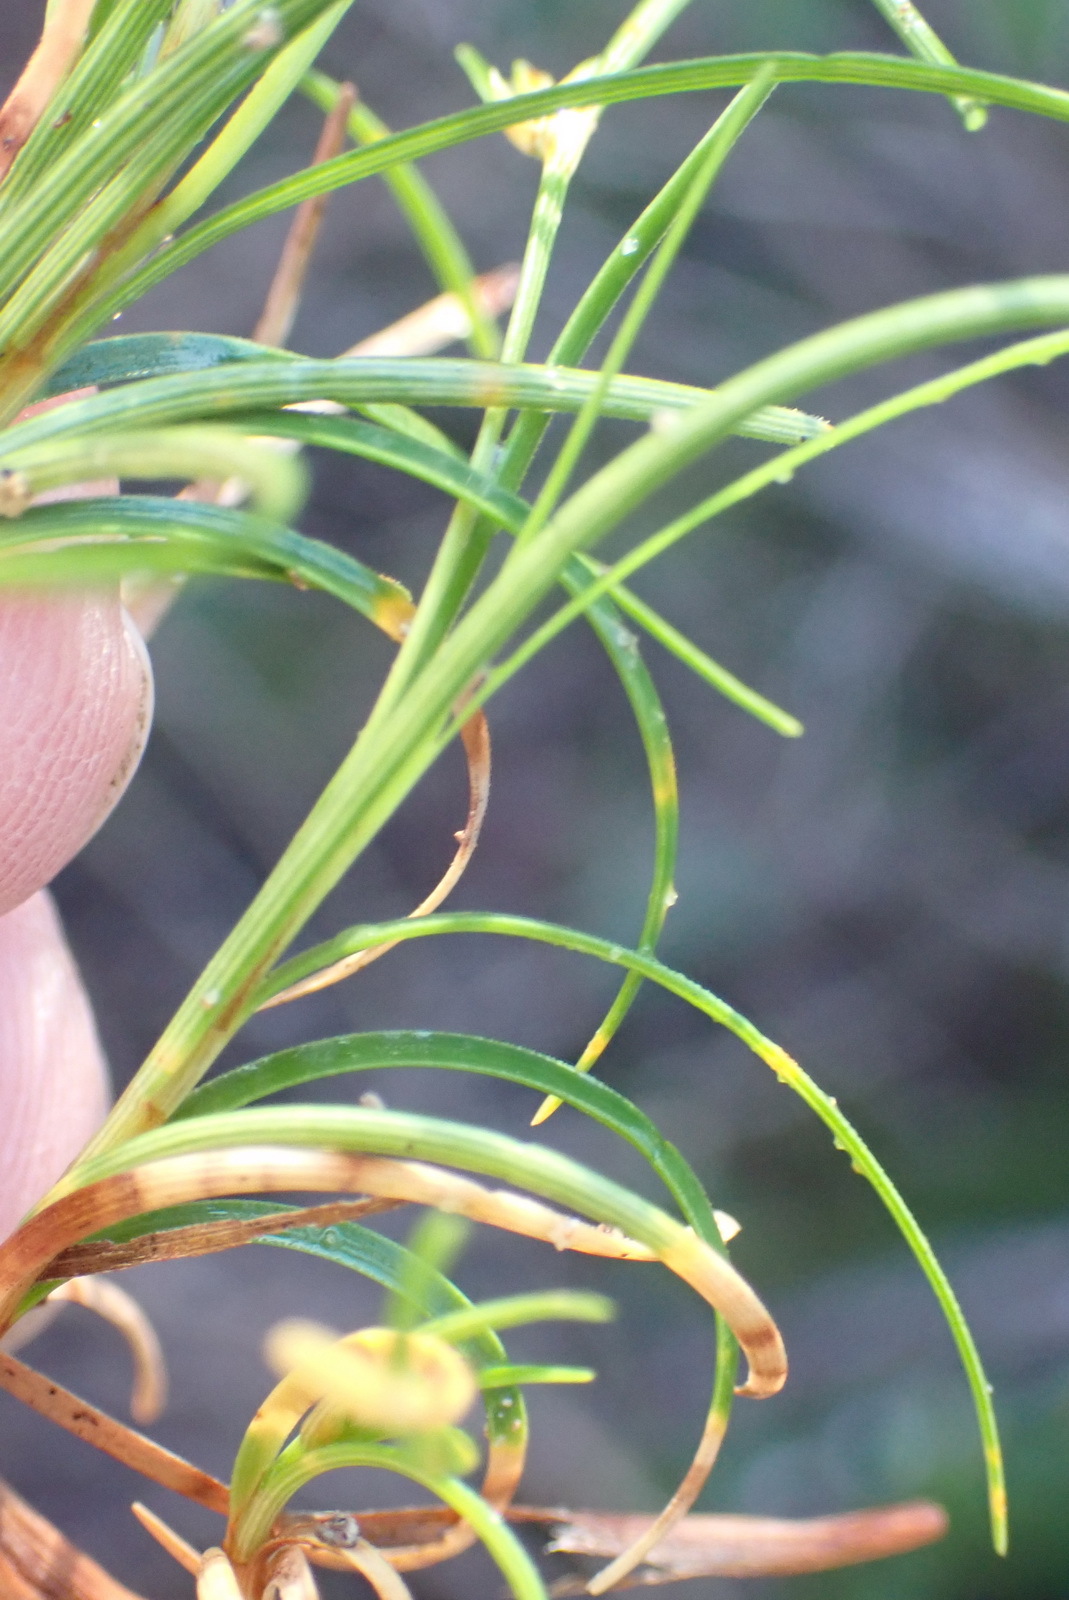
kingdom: Plantae
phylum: Tracheophyta
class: Liliopsida
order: Poales
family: Cyperaceae
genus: Ficinia
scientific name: Ficinia ramosissima
